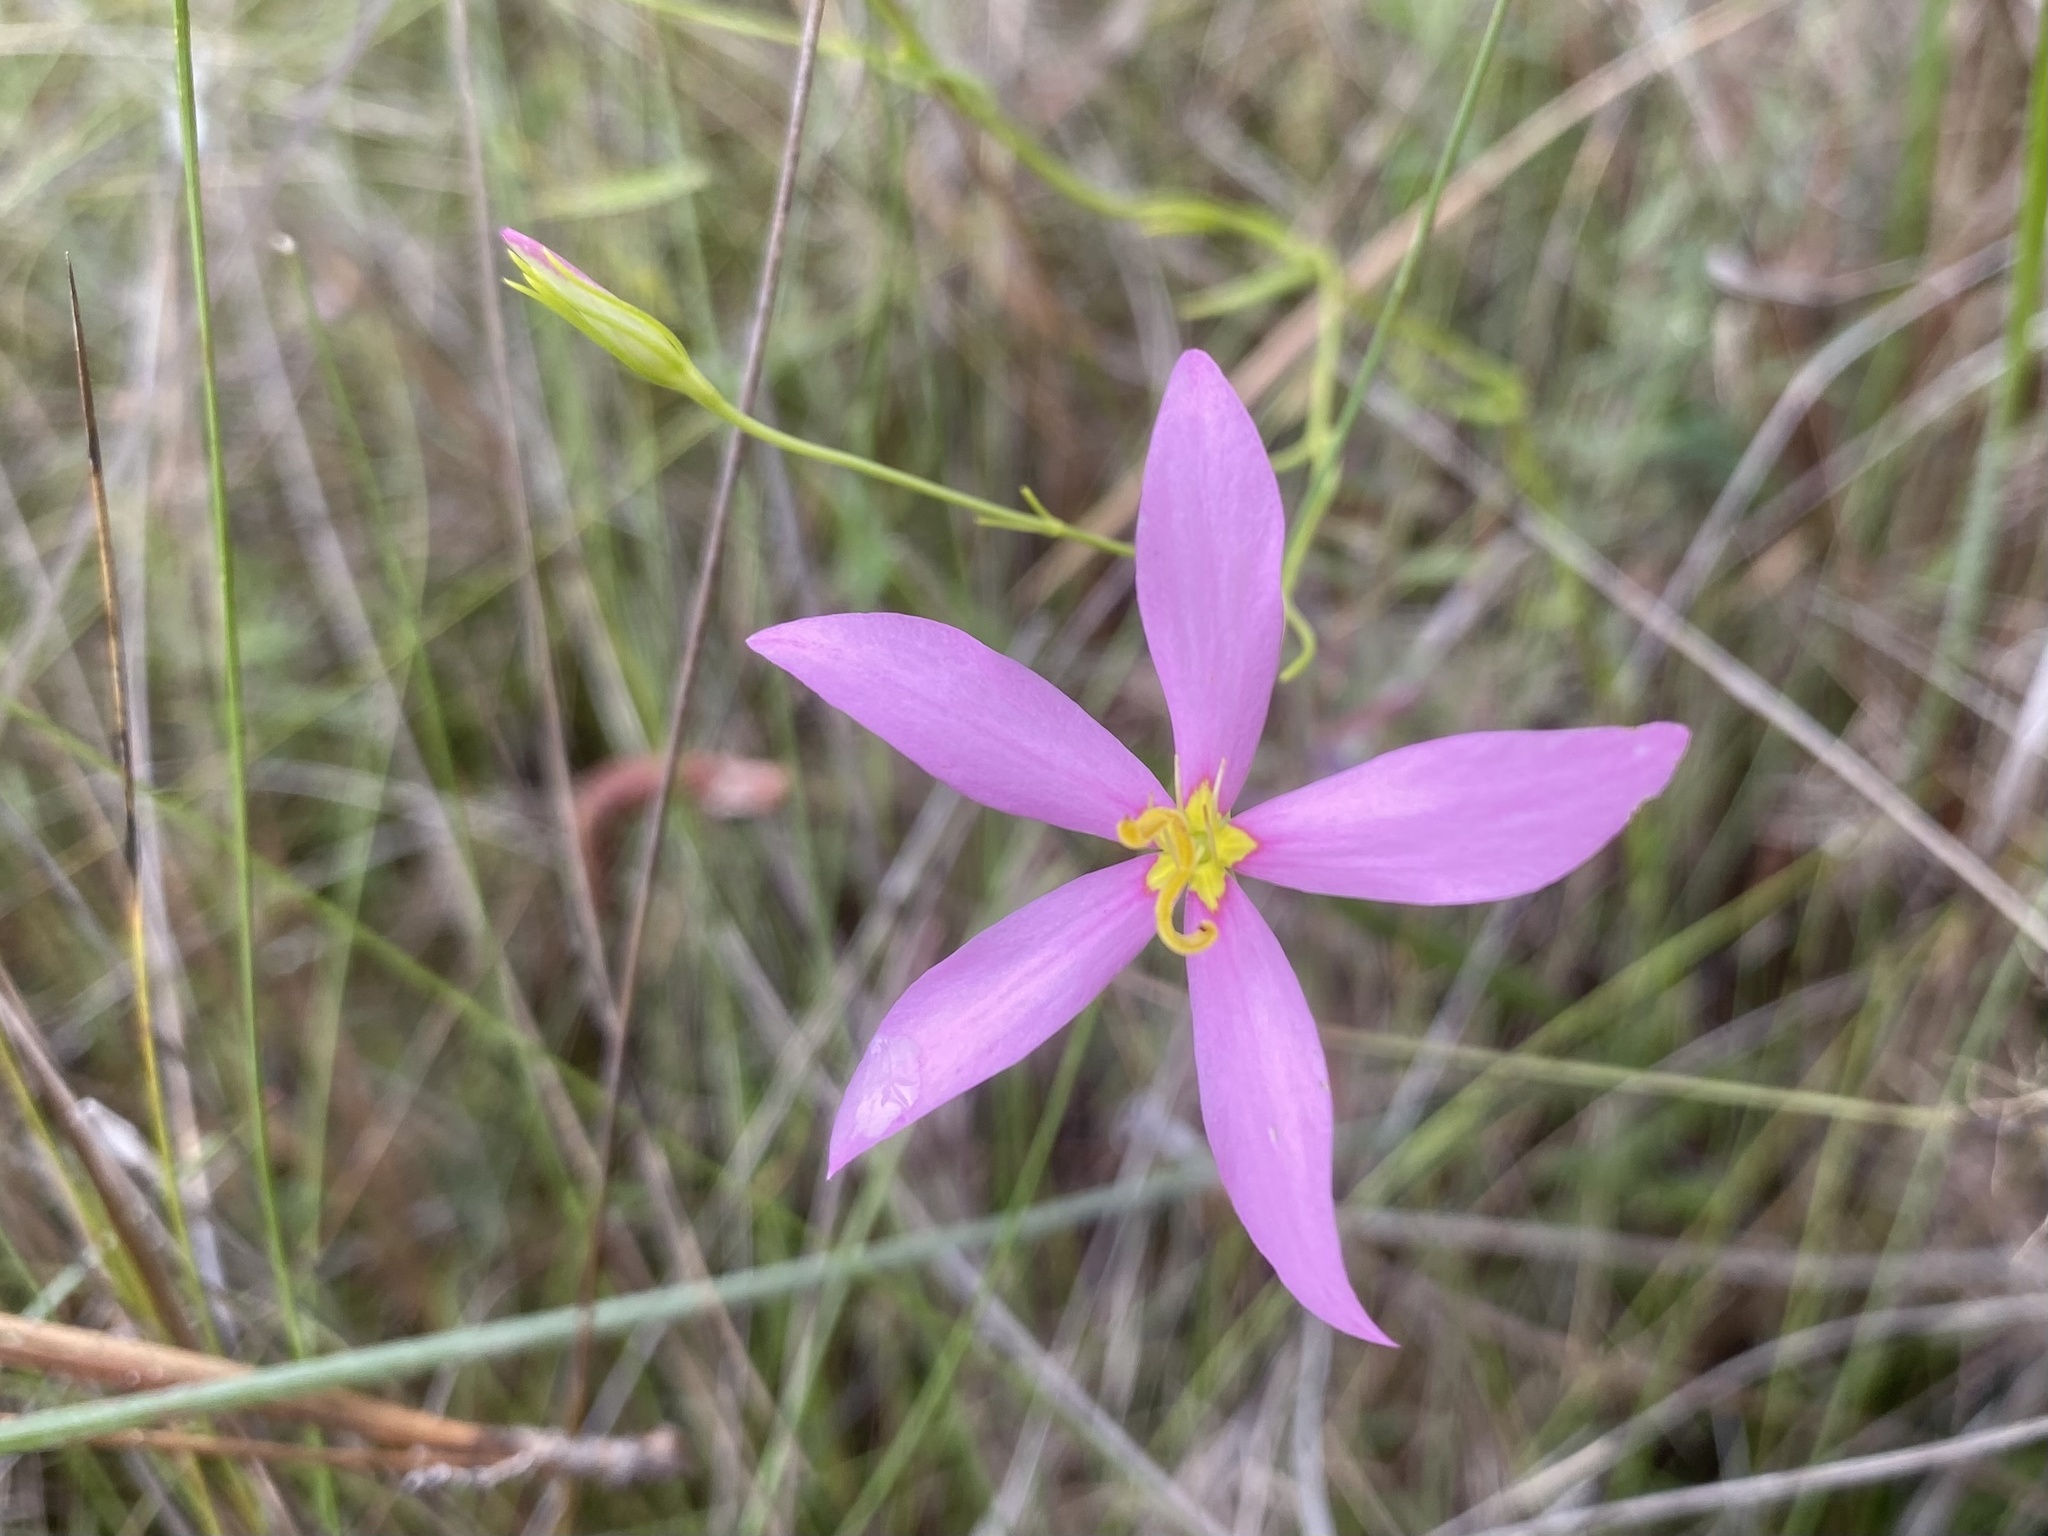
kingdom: Plantae
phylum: Tracheophyta
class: Magnoliopsida
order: Gentianales
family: Gentianaceae
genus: Sabatia
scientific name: Sabatia grandiflora
